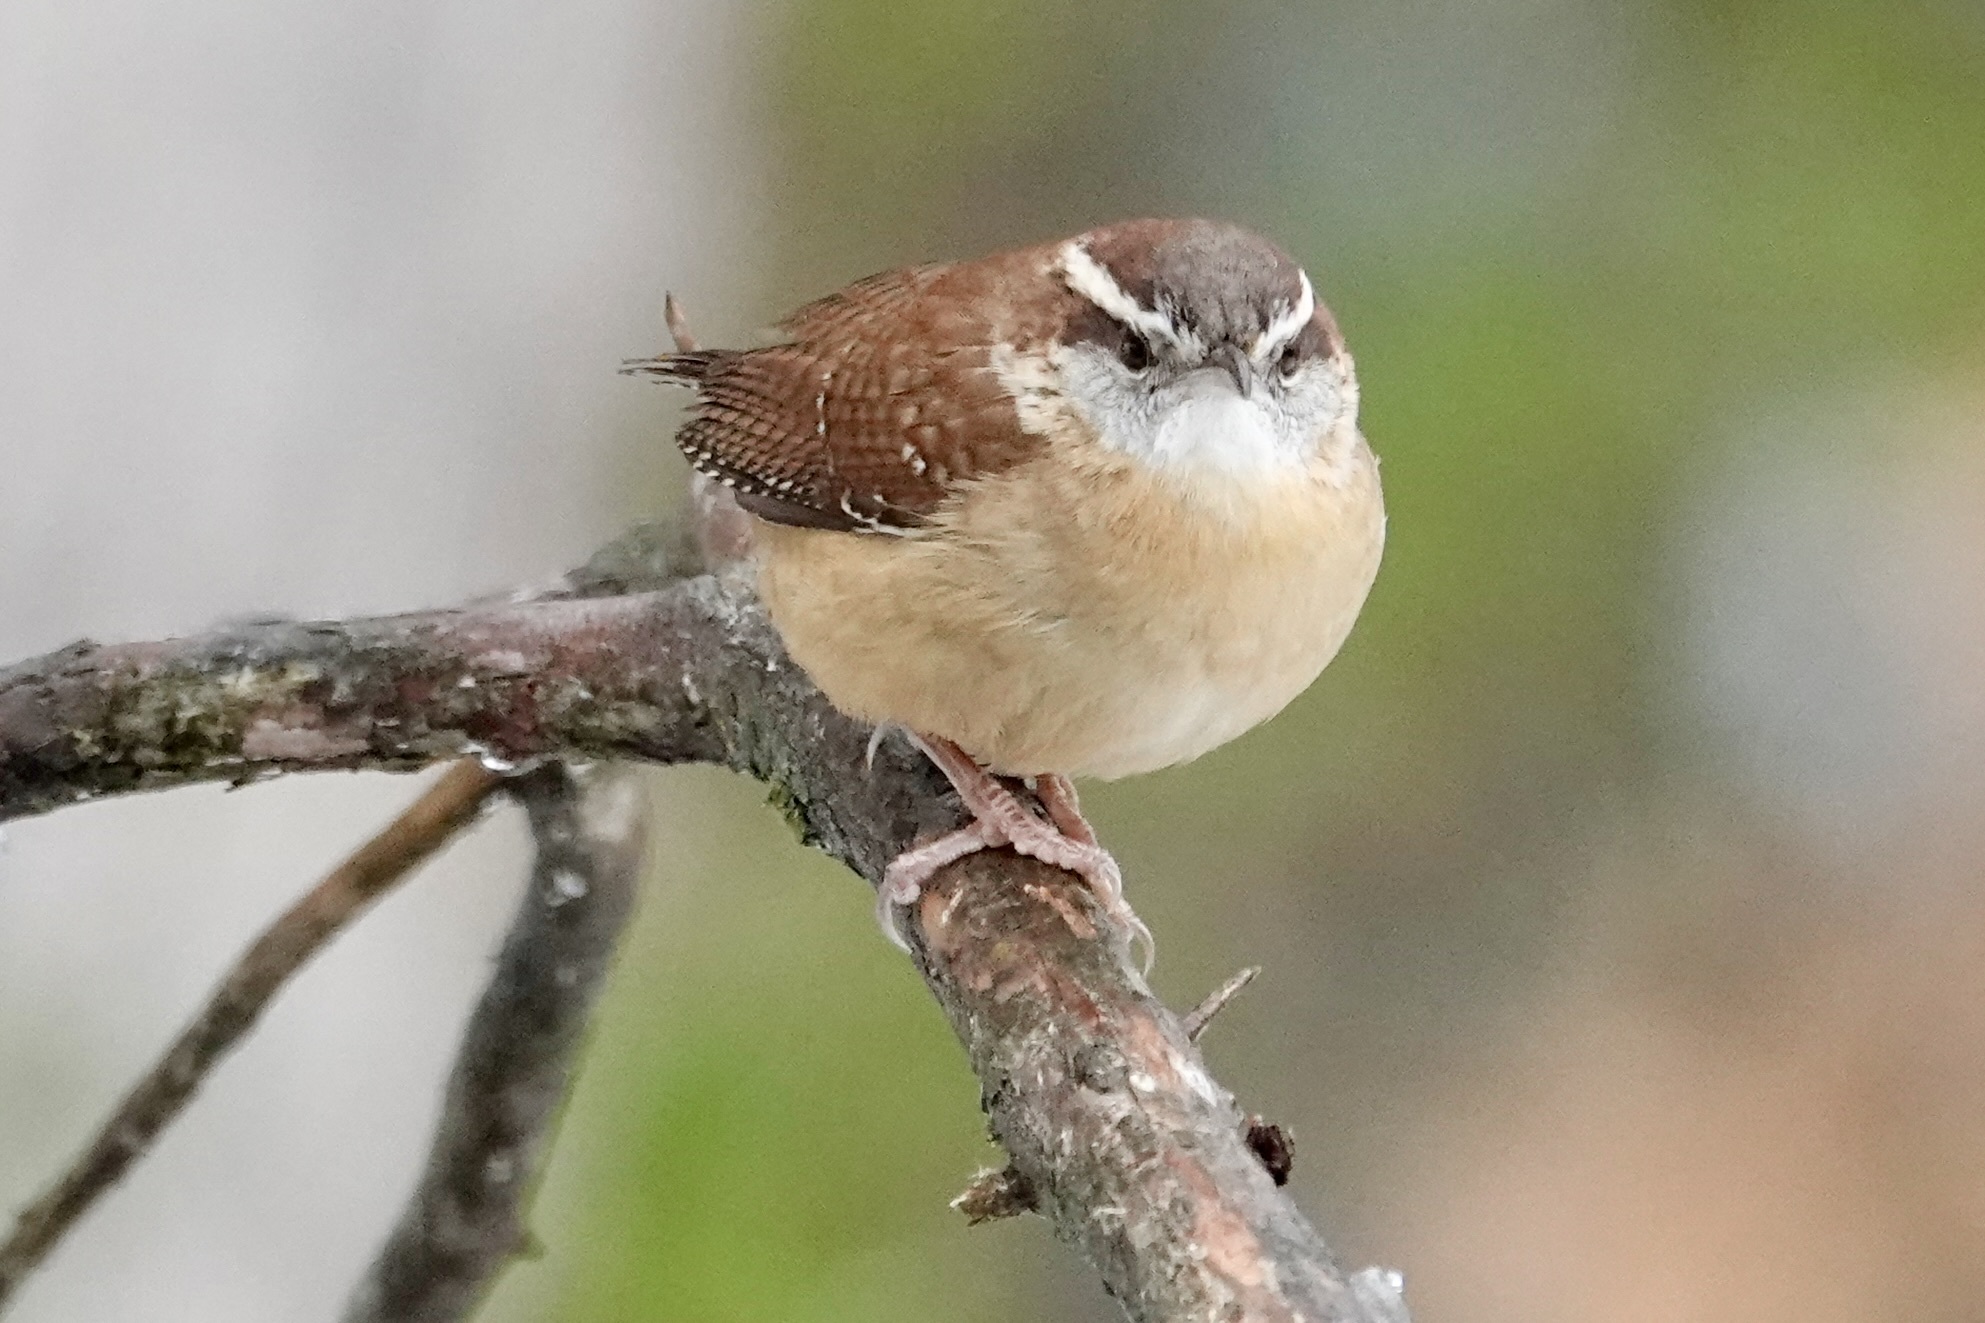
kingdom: Animalia
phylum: Chordata
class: Aves
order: Passeriformes
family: Troglodytidae
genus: Thryothorus
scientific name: Thryothorus ludovicianus
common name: Carolina wren
